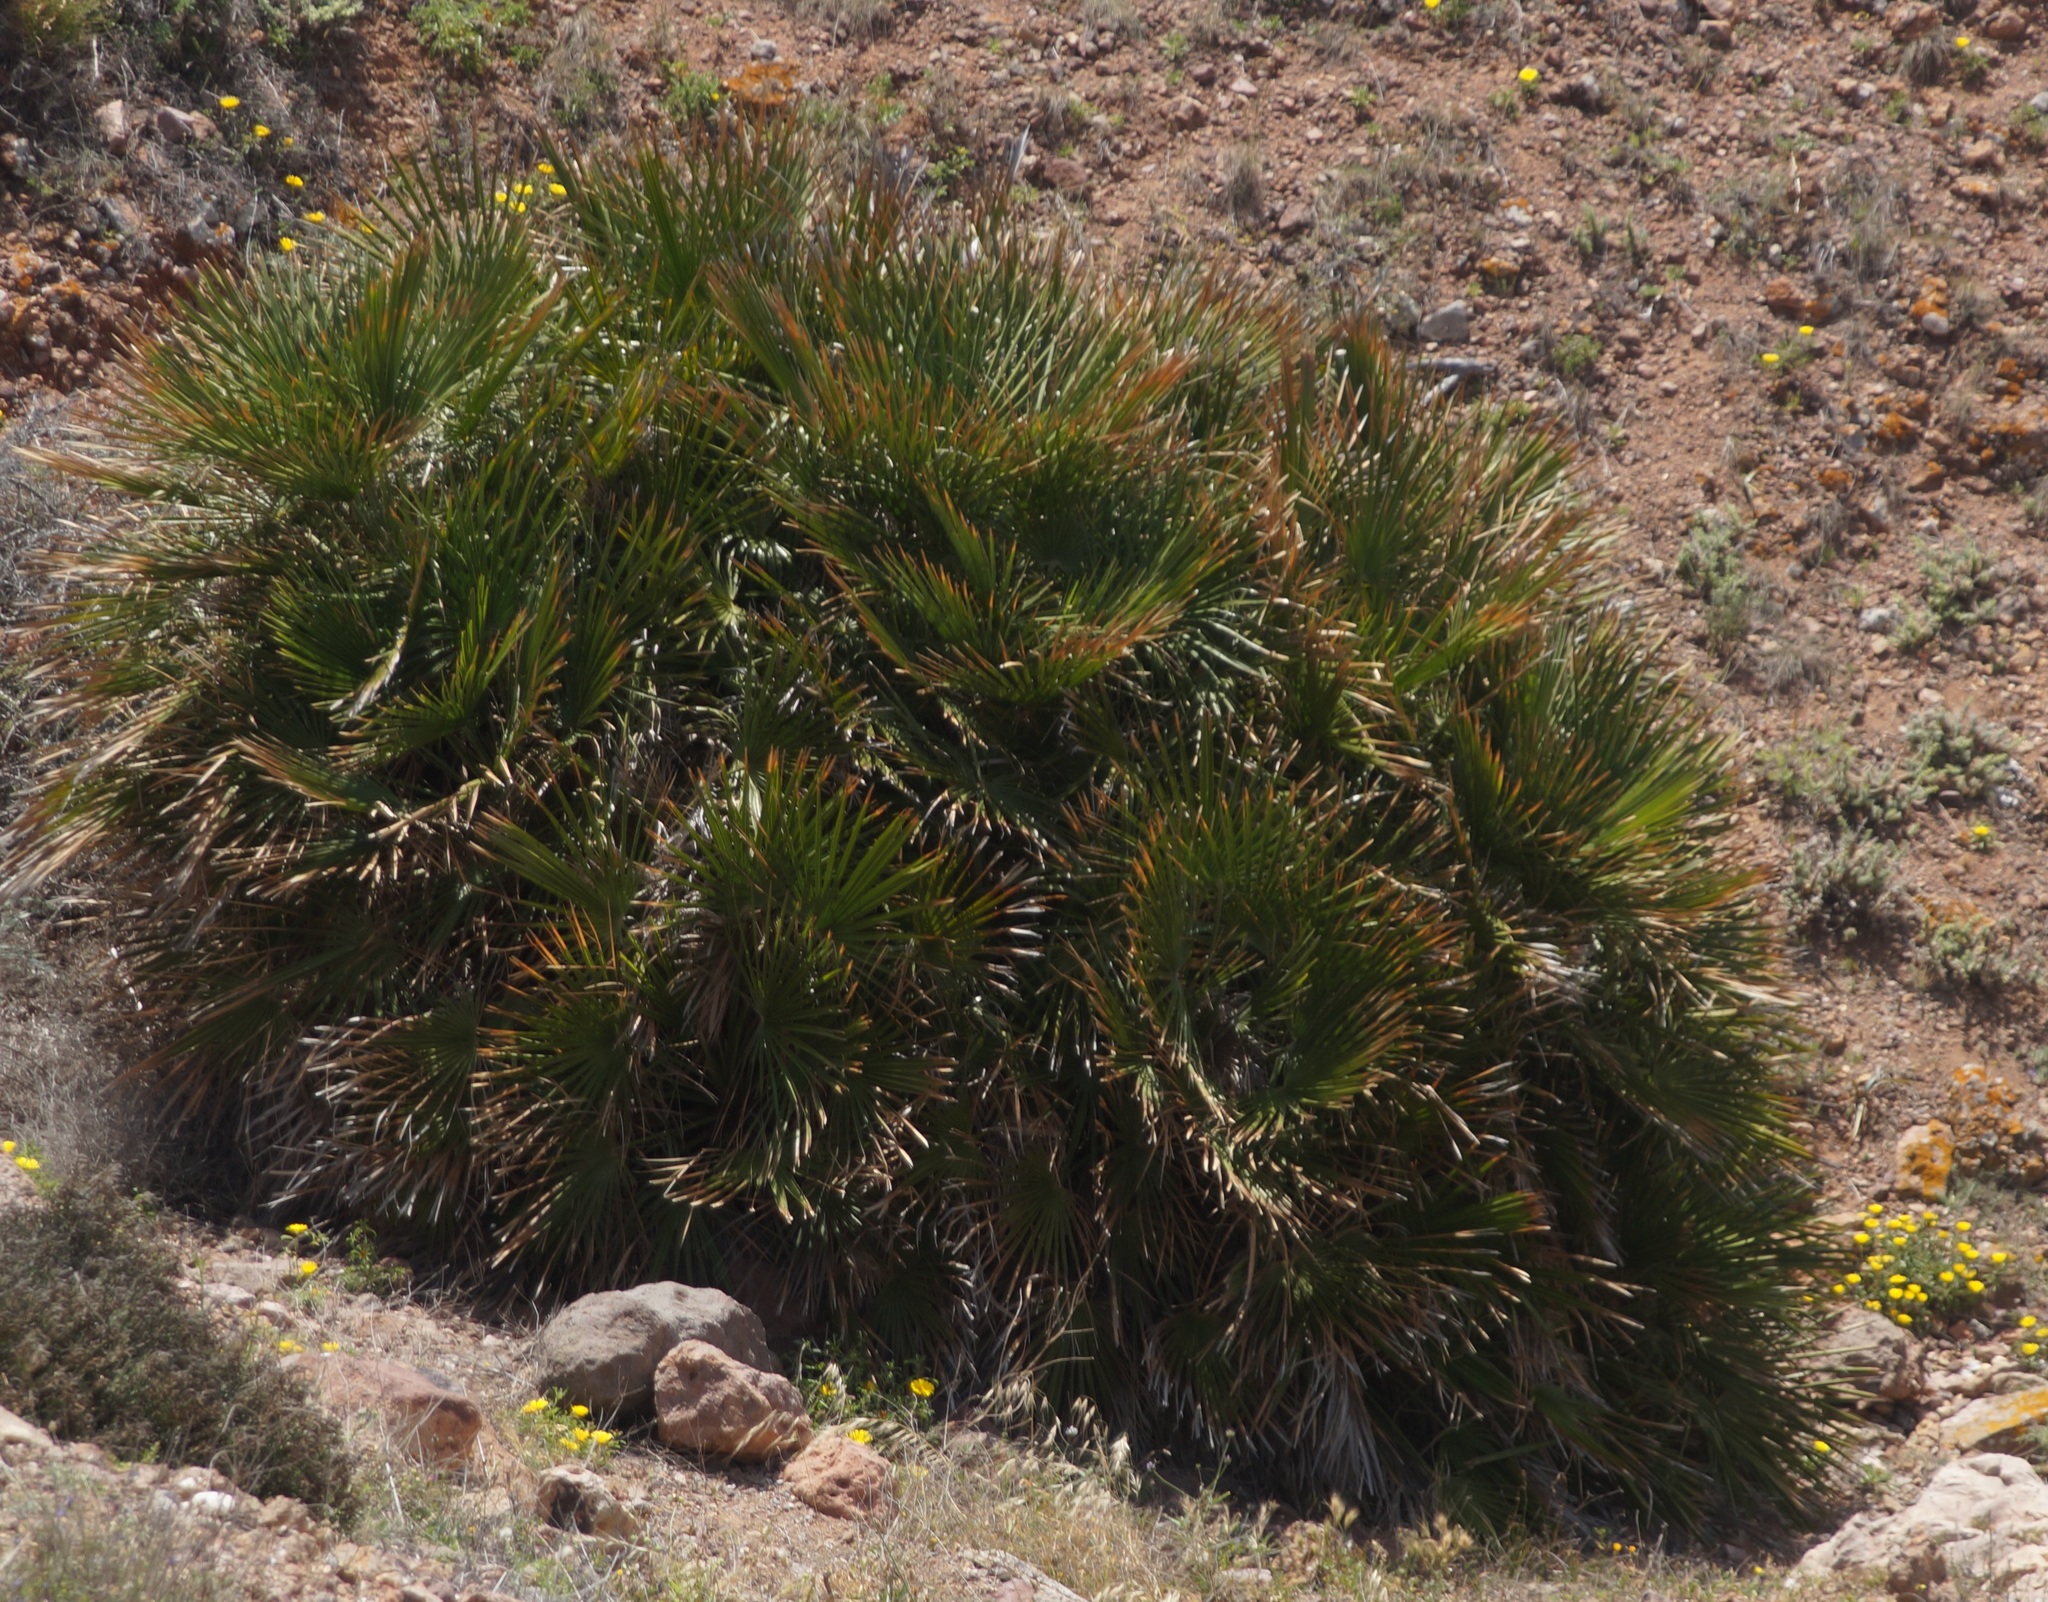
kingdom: Plantae
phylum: Tracheophyta
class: Liliopsida
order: Arecales
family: Arecaceae
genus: Chamaerops
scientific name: Chamaerops humilis
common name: Dwarf fan palm
